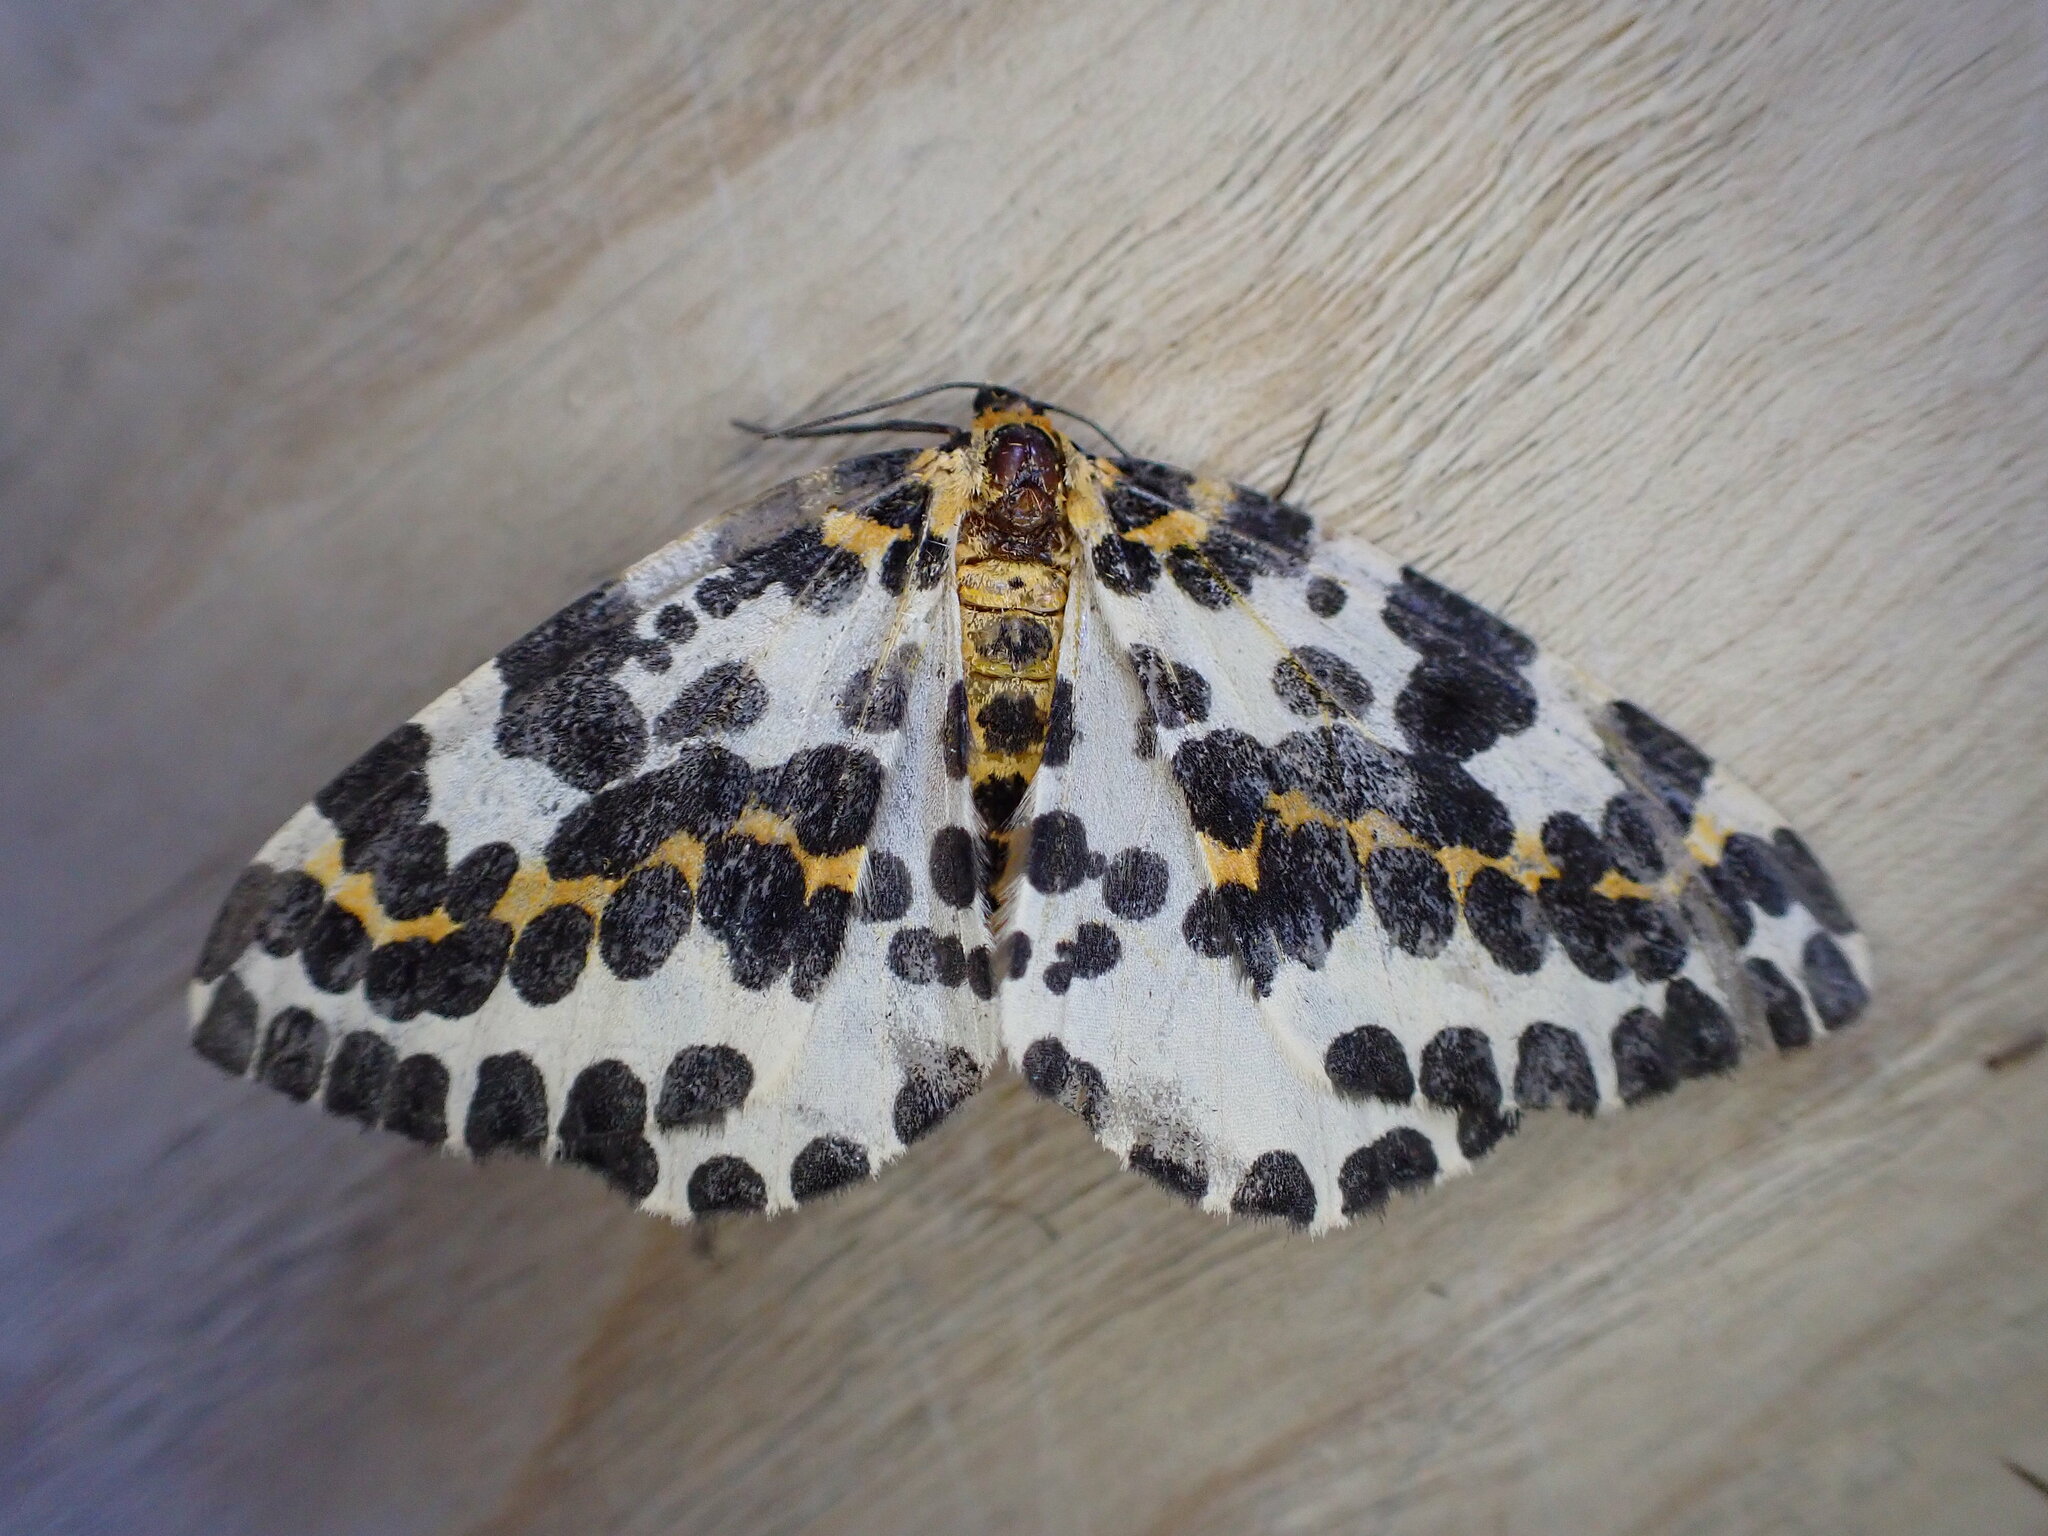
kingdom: Animalia
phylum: Arthropoda
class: Insecta
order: Lepidoptera
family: Geometridae
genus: Abraxas
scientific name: Abraxas grossulariata
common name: Magpie
